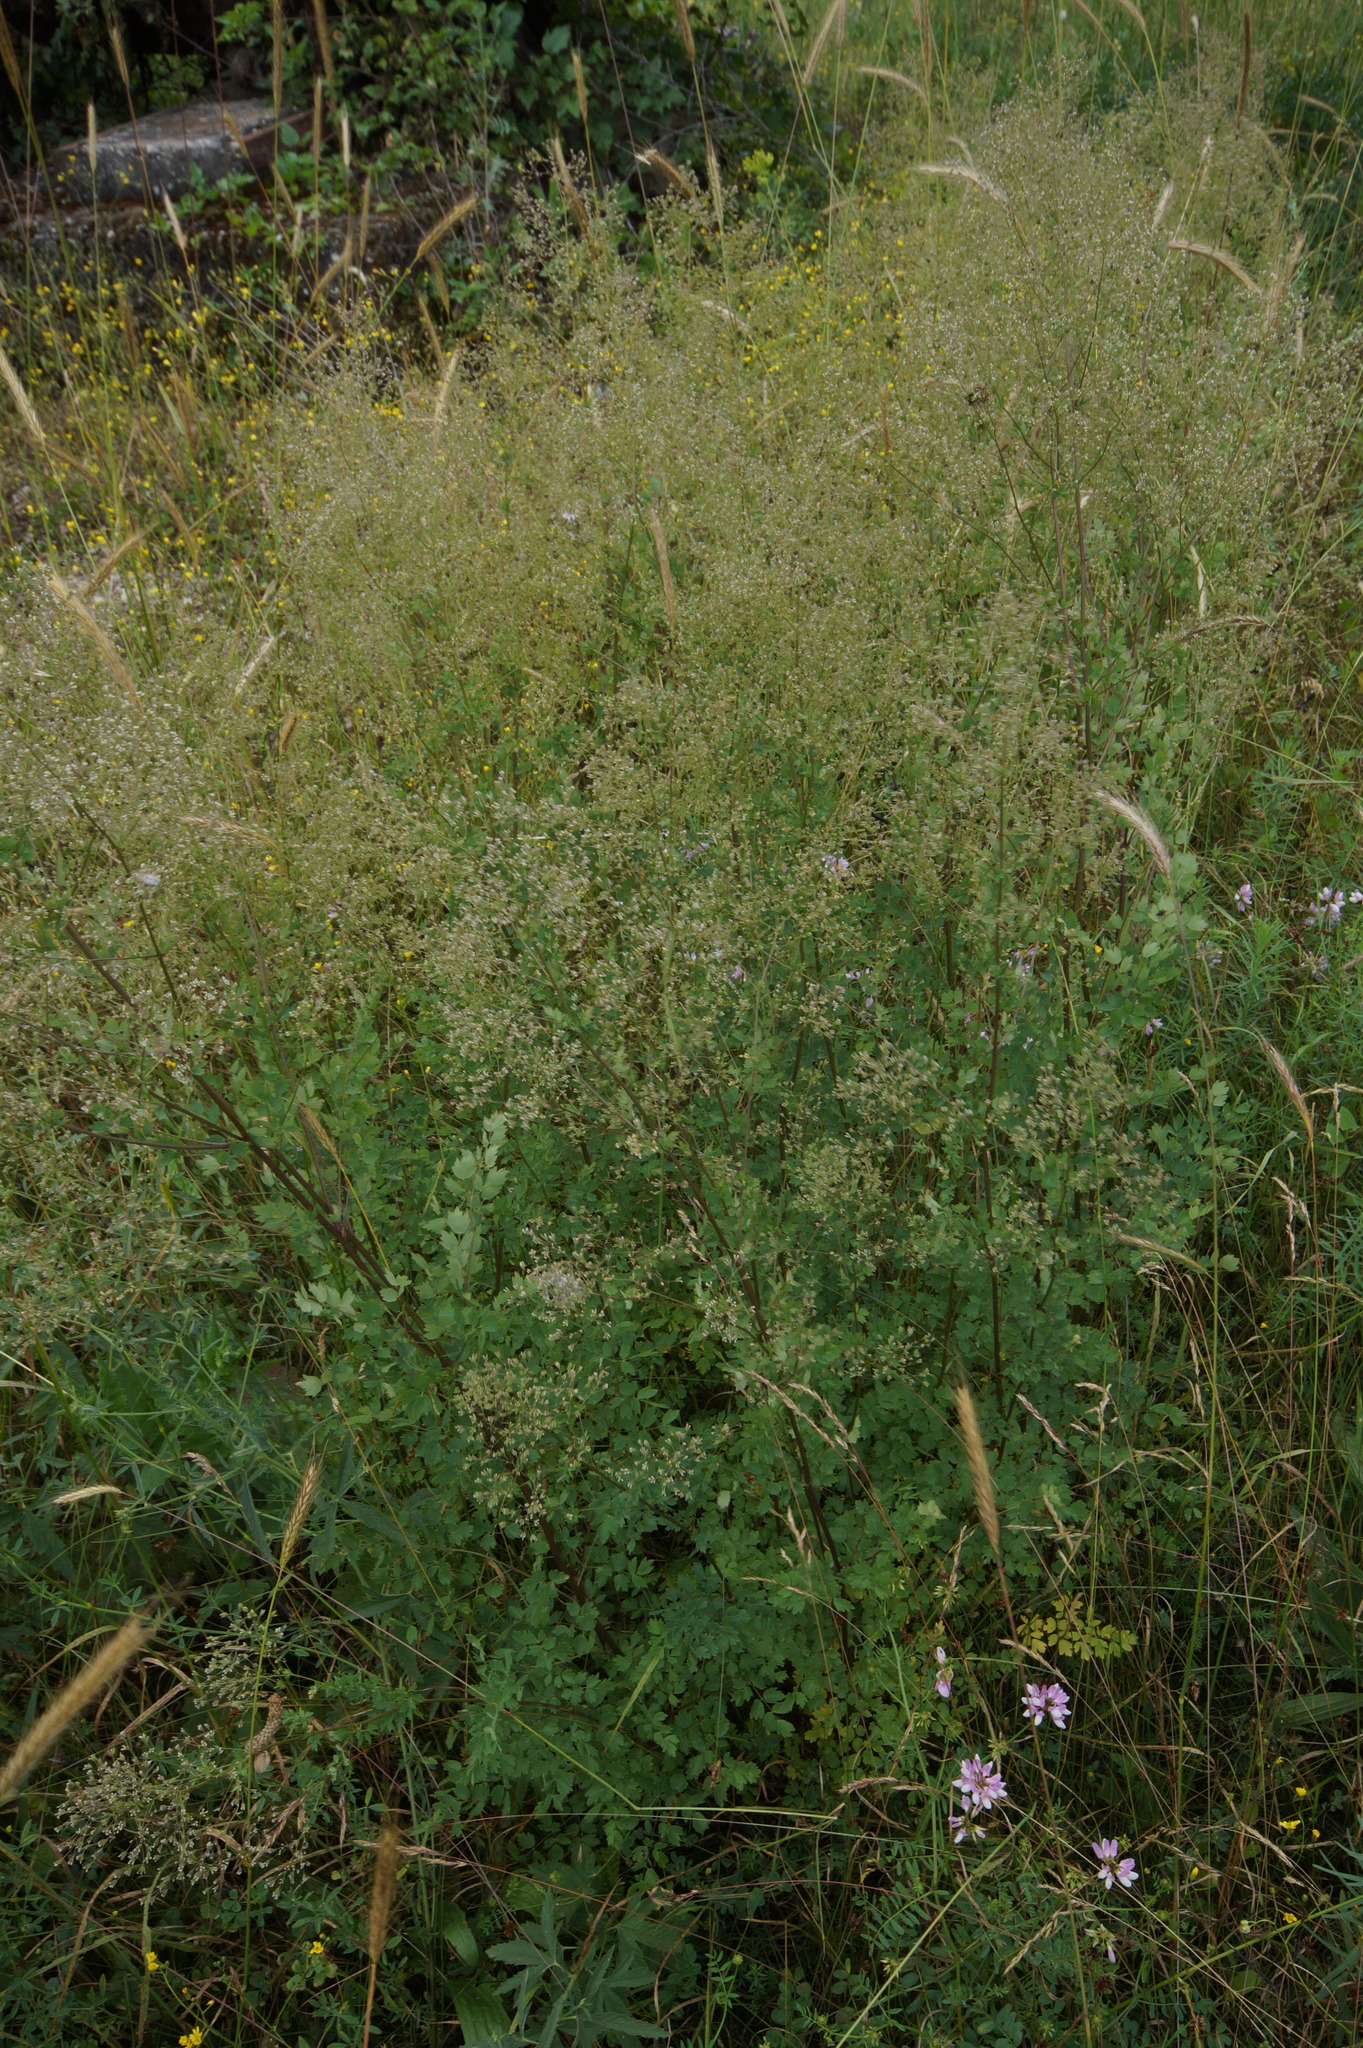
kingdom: Plantae
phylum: Tracheophyta
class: Magnoliopsida
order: Ranunculales
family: Ranunculaceae
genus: Thalictrum
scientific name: Thalictrum minus
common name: Lesser meadow-rue
